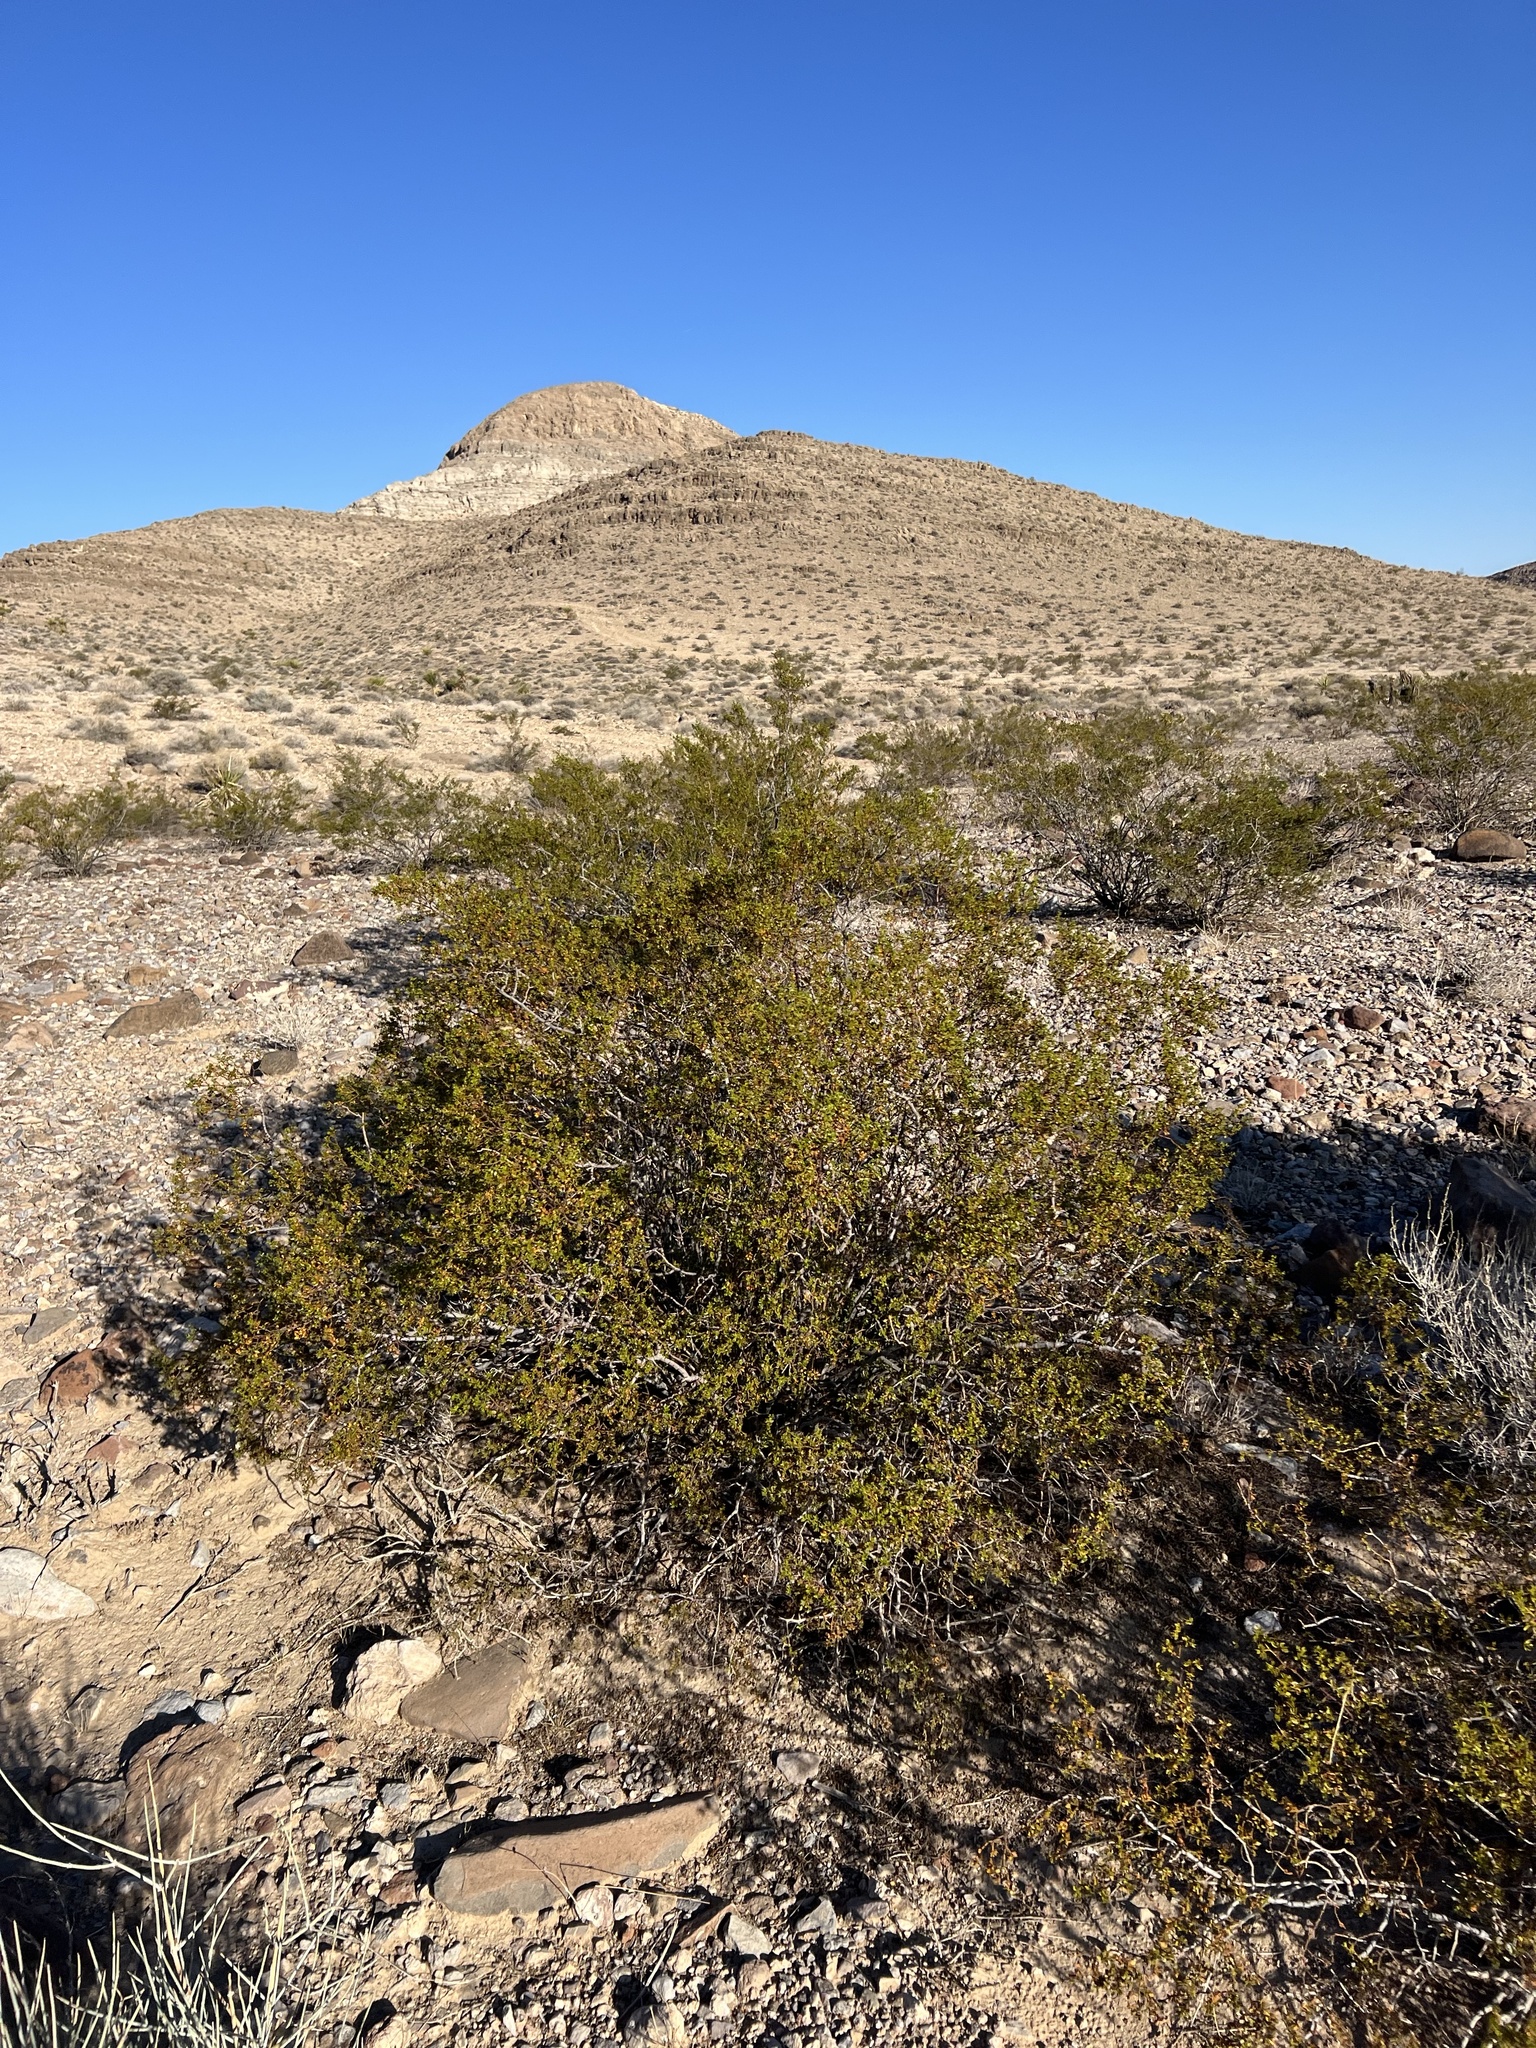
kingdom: Plantae
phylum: Tracheophyta
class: Magnoliopsida
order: Zygophyllales
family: Zygophyllaceae
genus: Larrea
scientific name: Larrea tridentata
